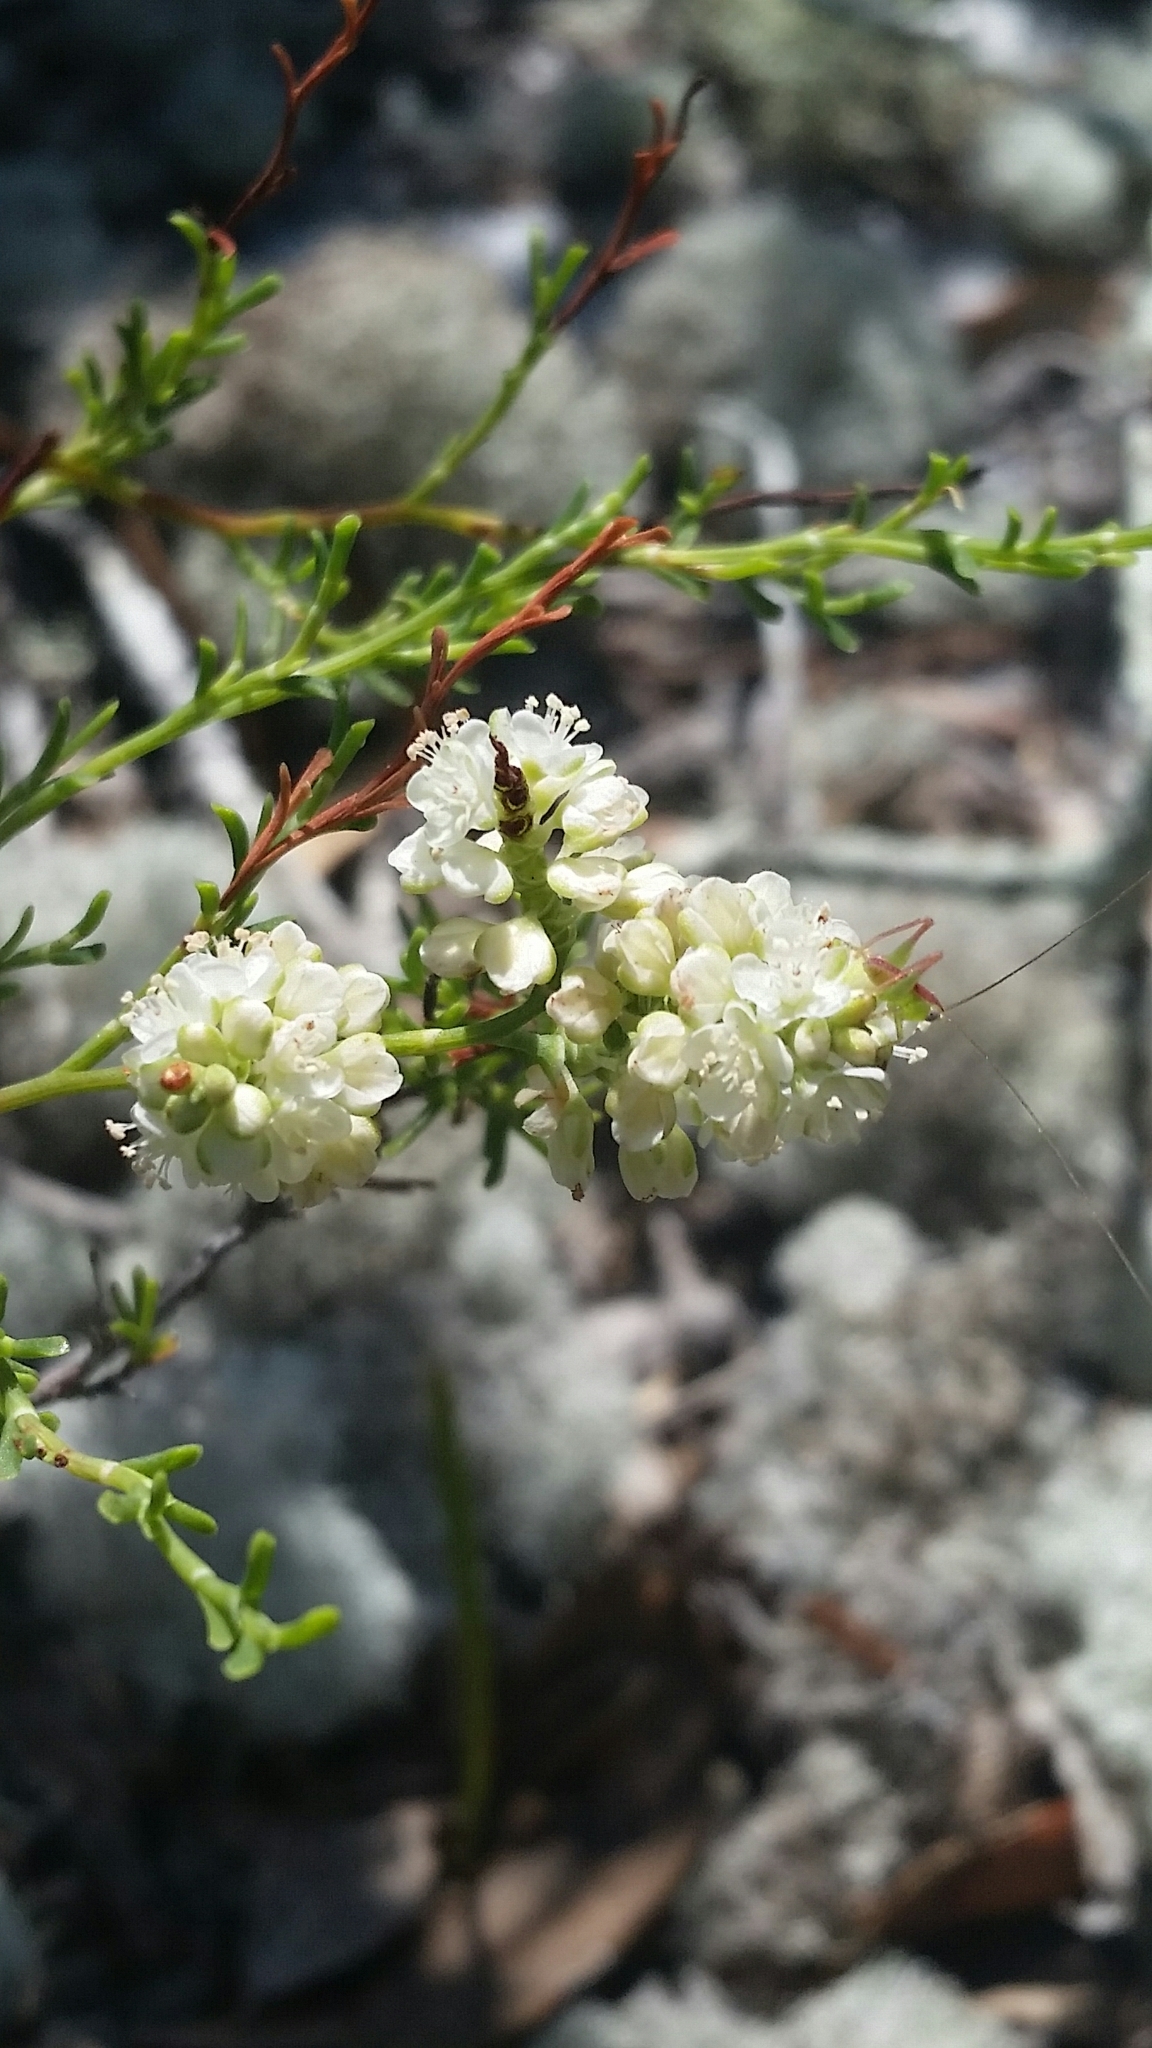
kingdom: Plantae
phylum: Tracheophyta
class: Magnoliopsida
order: Caryophyllales
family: Polygonaceae
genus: Polygonella
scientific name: Polygonella myriophylla
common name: Sandlace
